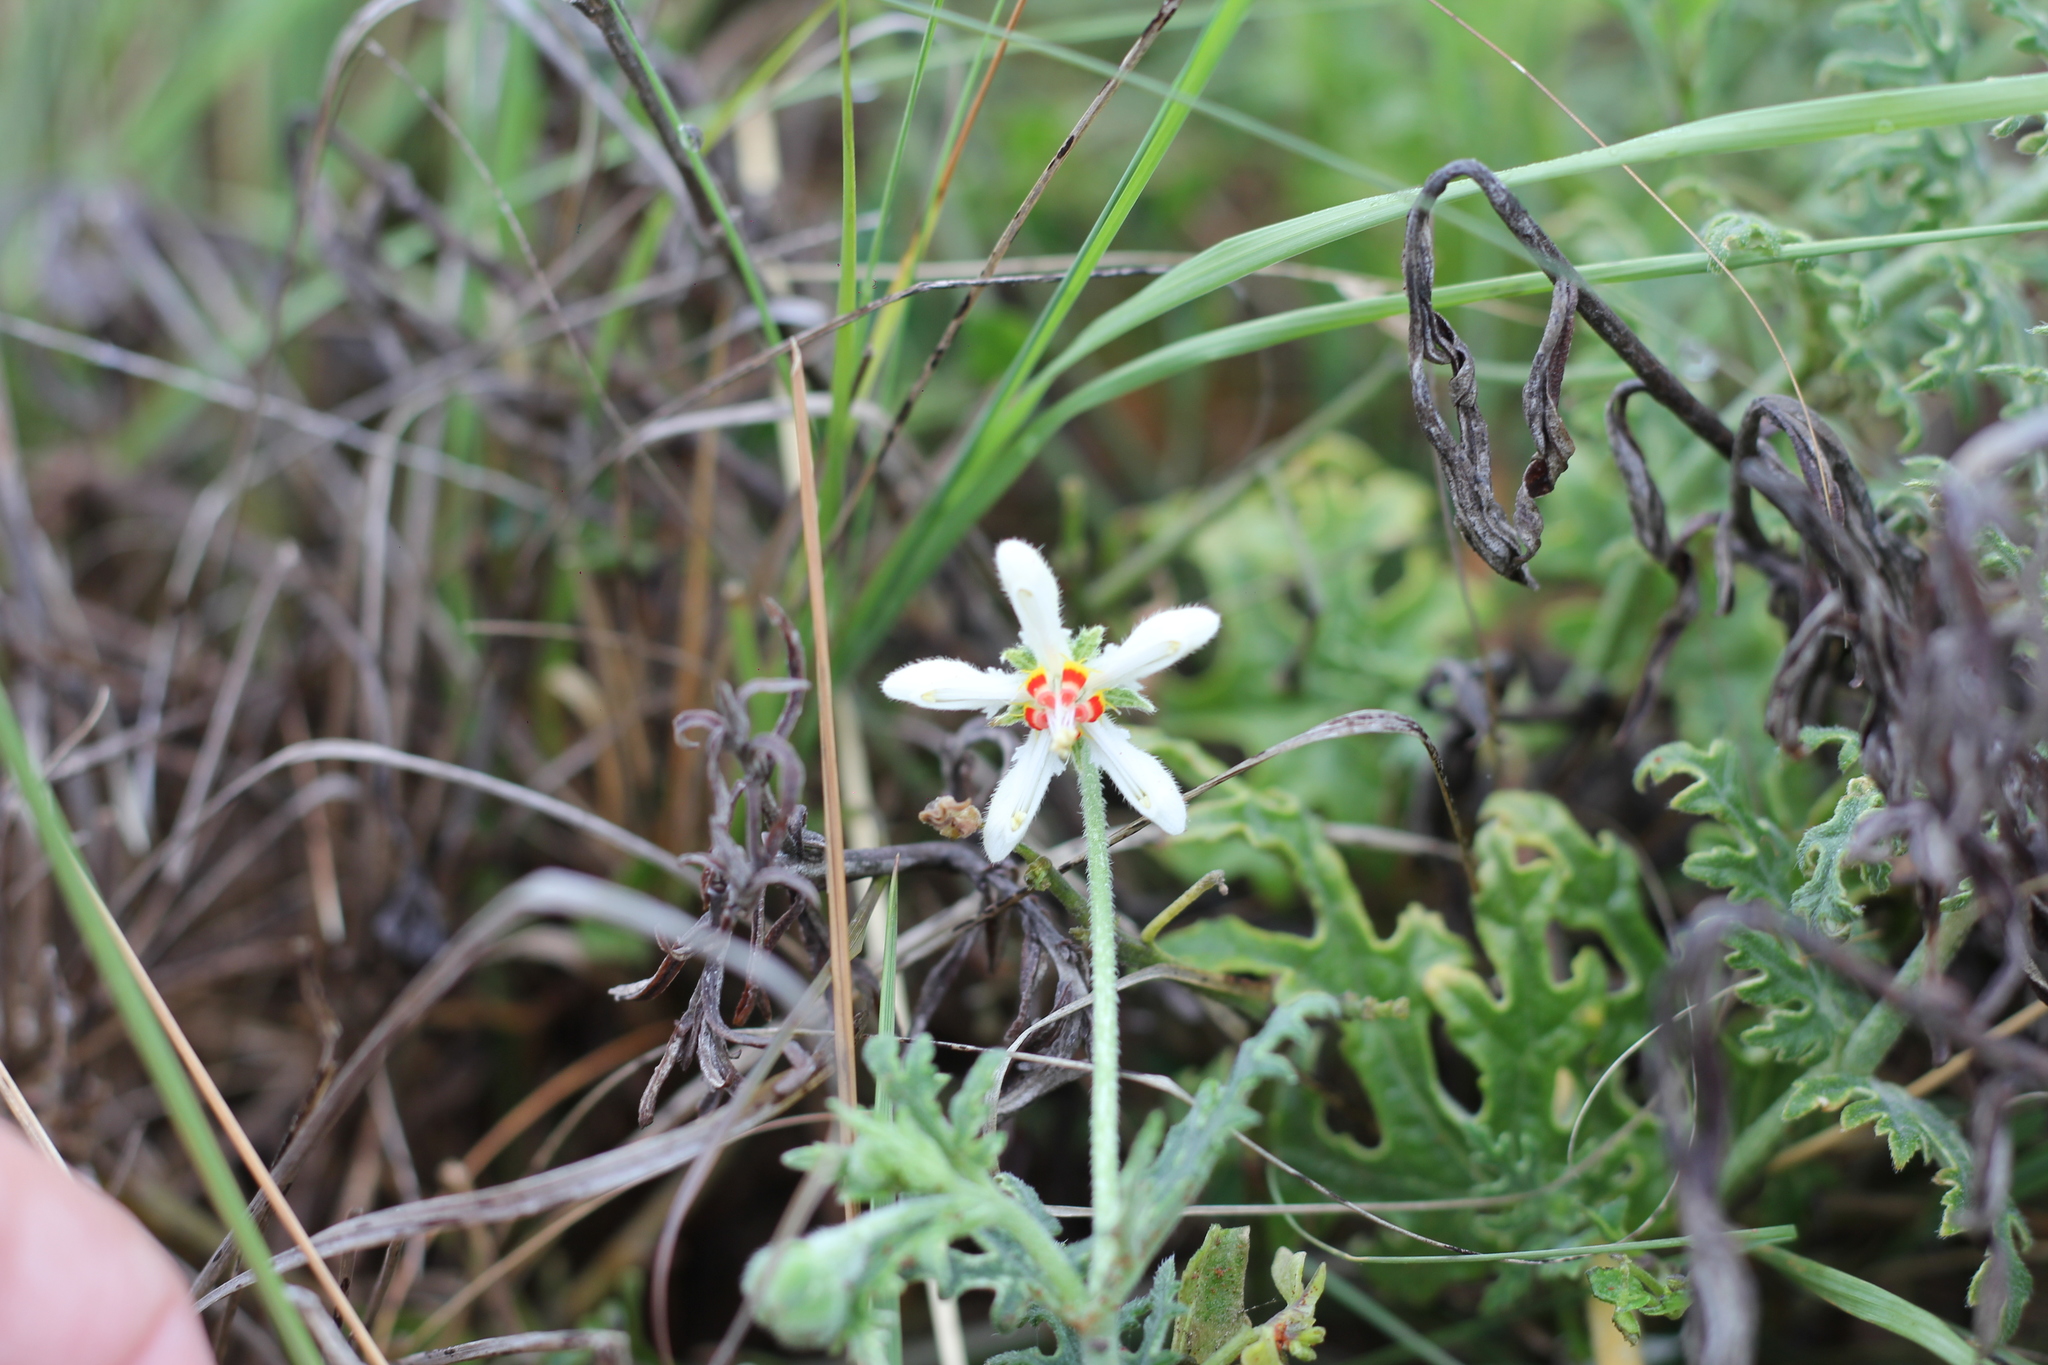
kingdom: Plantae
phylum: Tracheophyta
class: Magnoliopsida
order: Cornales
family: Loasaceae
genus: Blumenbachia
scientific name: Blumenbachia insignis
